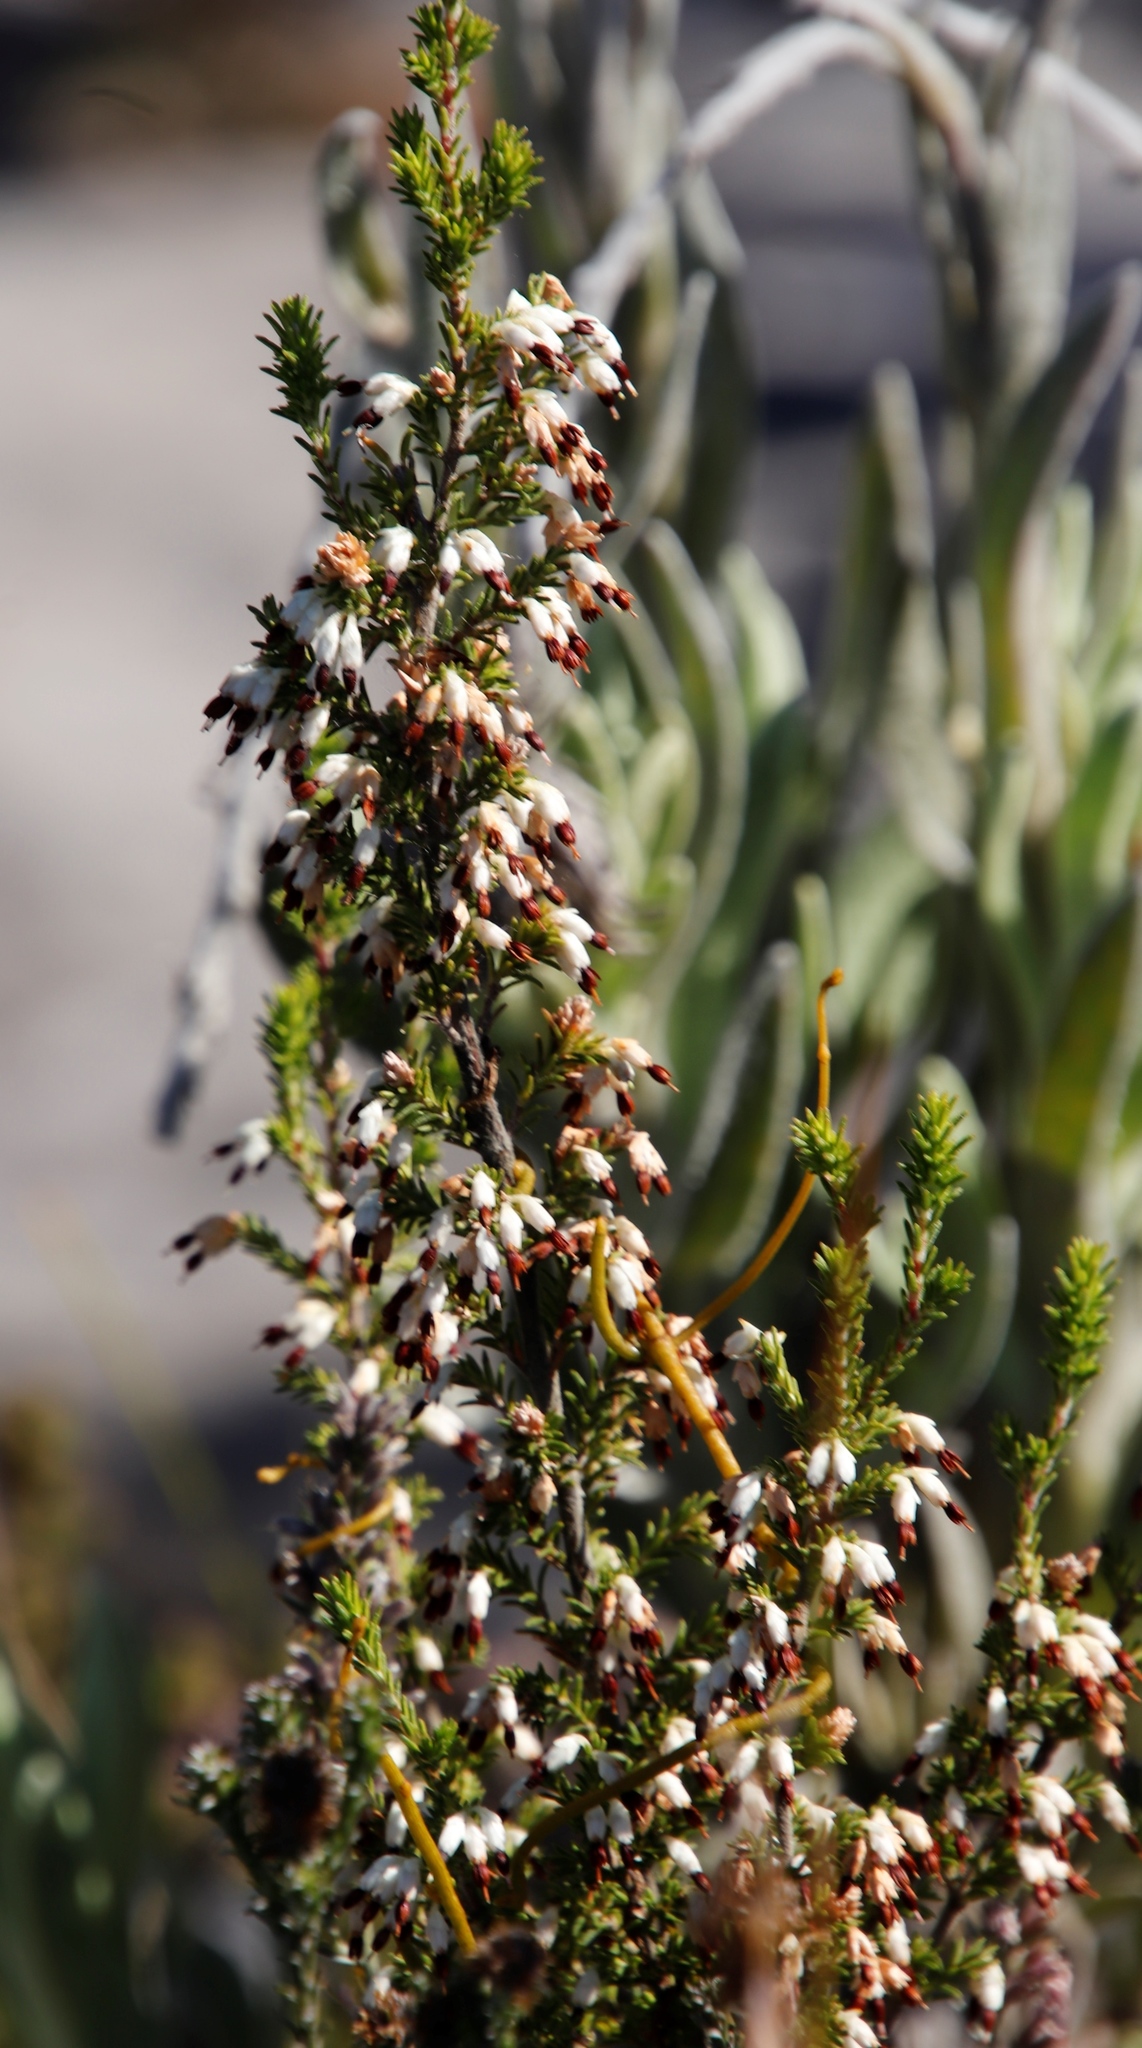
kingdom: Plantae
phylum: Tracheophyta
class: Magnoliopsida
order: Ericales
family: Ericaceae
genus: Erica
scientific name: Erica imbricata
